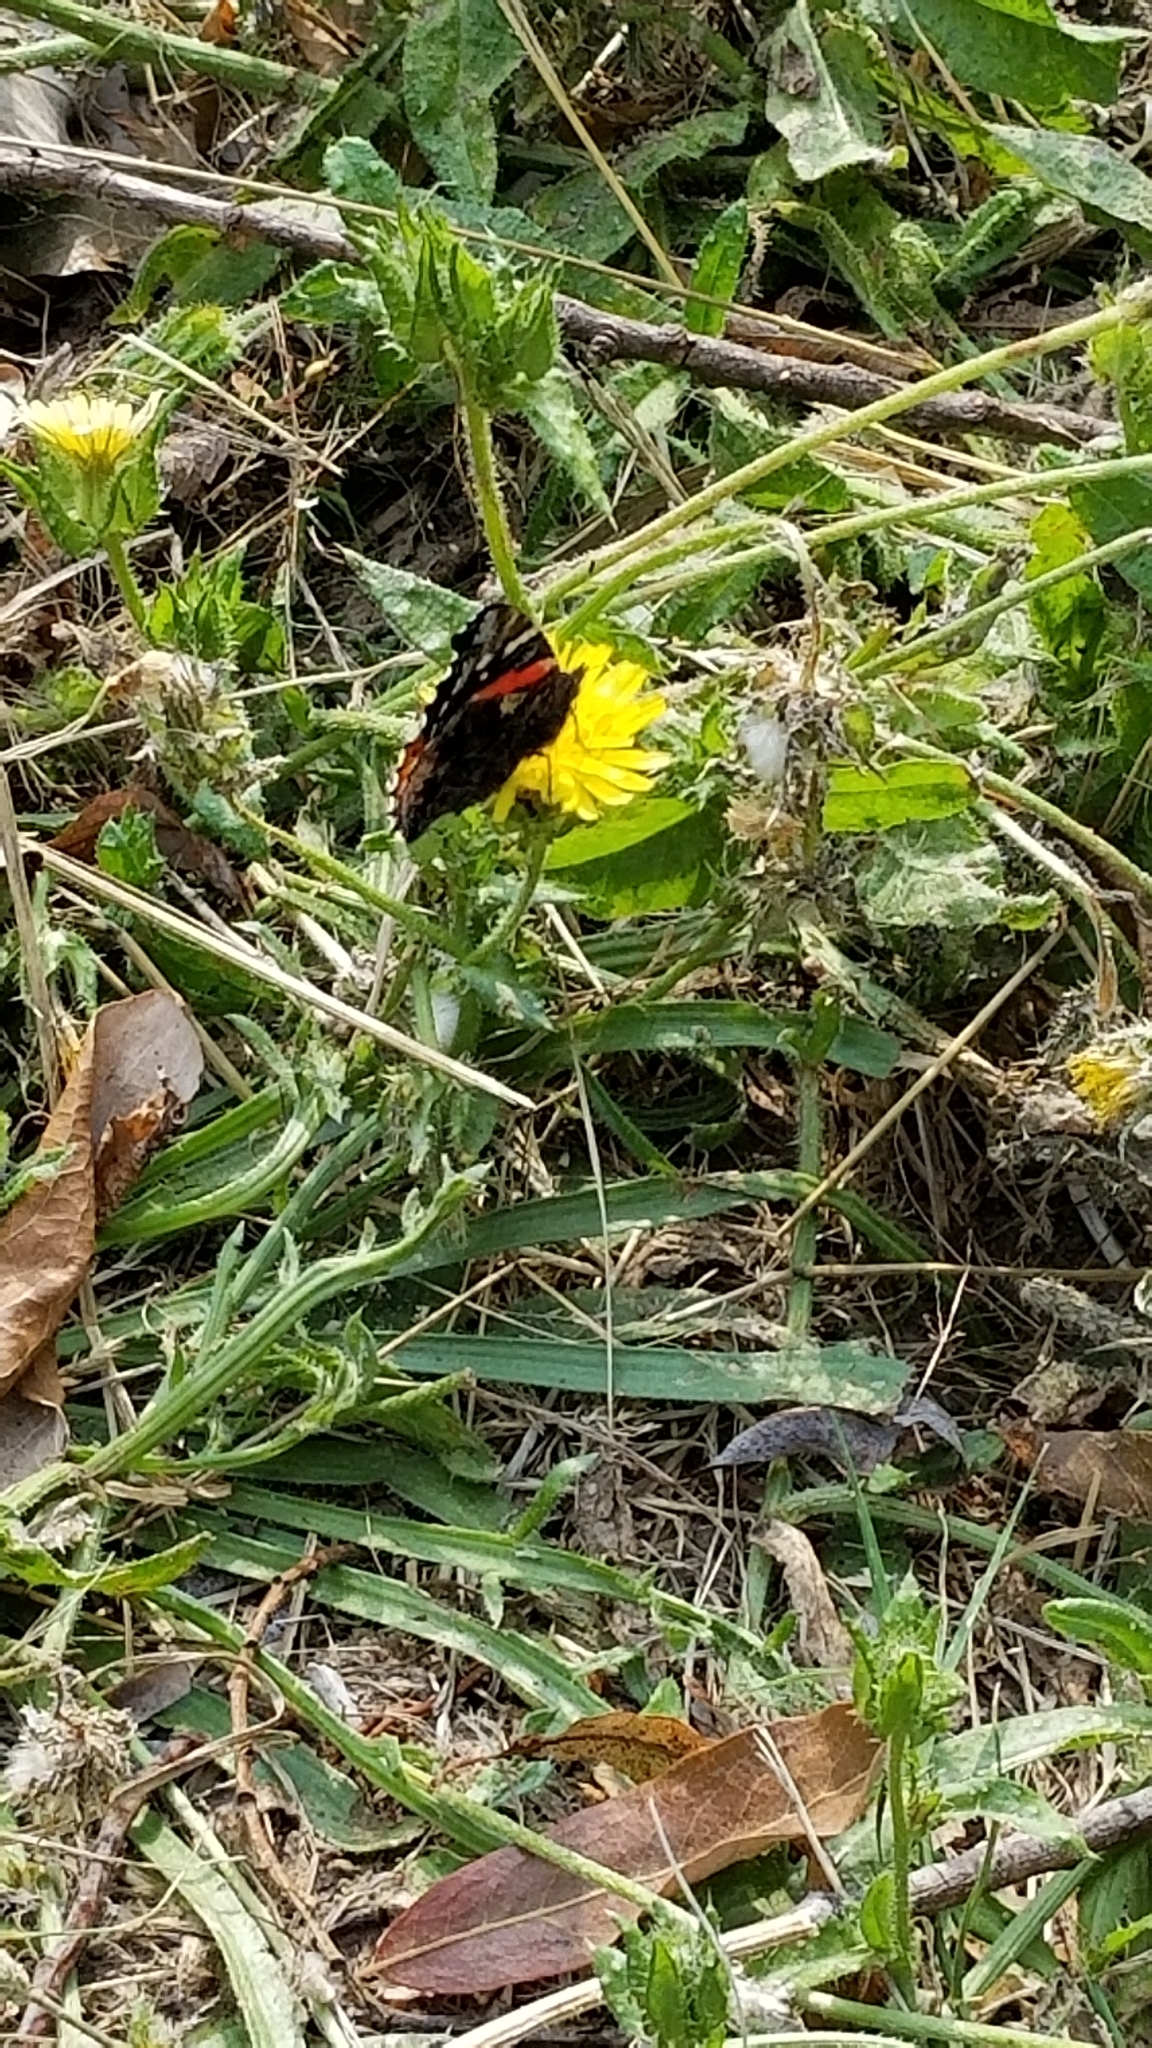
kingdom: Animalia
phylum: Arthropoda
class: Insecta
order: Lepidoptera
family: Nymphalidae
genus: Vanessa
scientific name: Vanessa atalanta
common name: Red admiral
